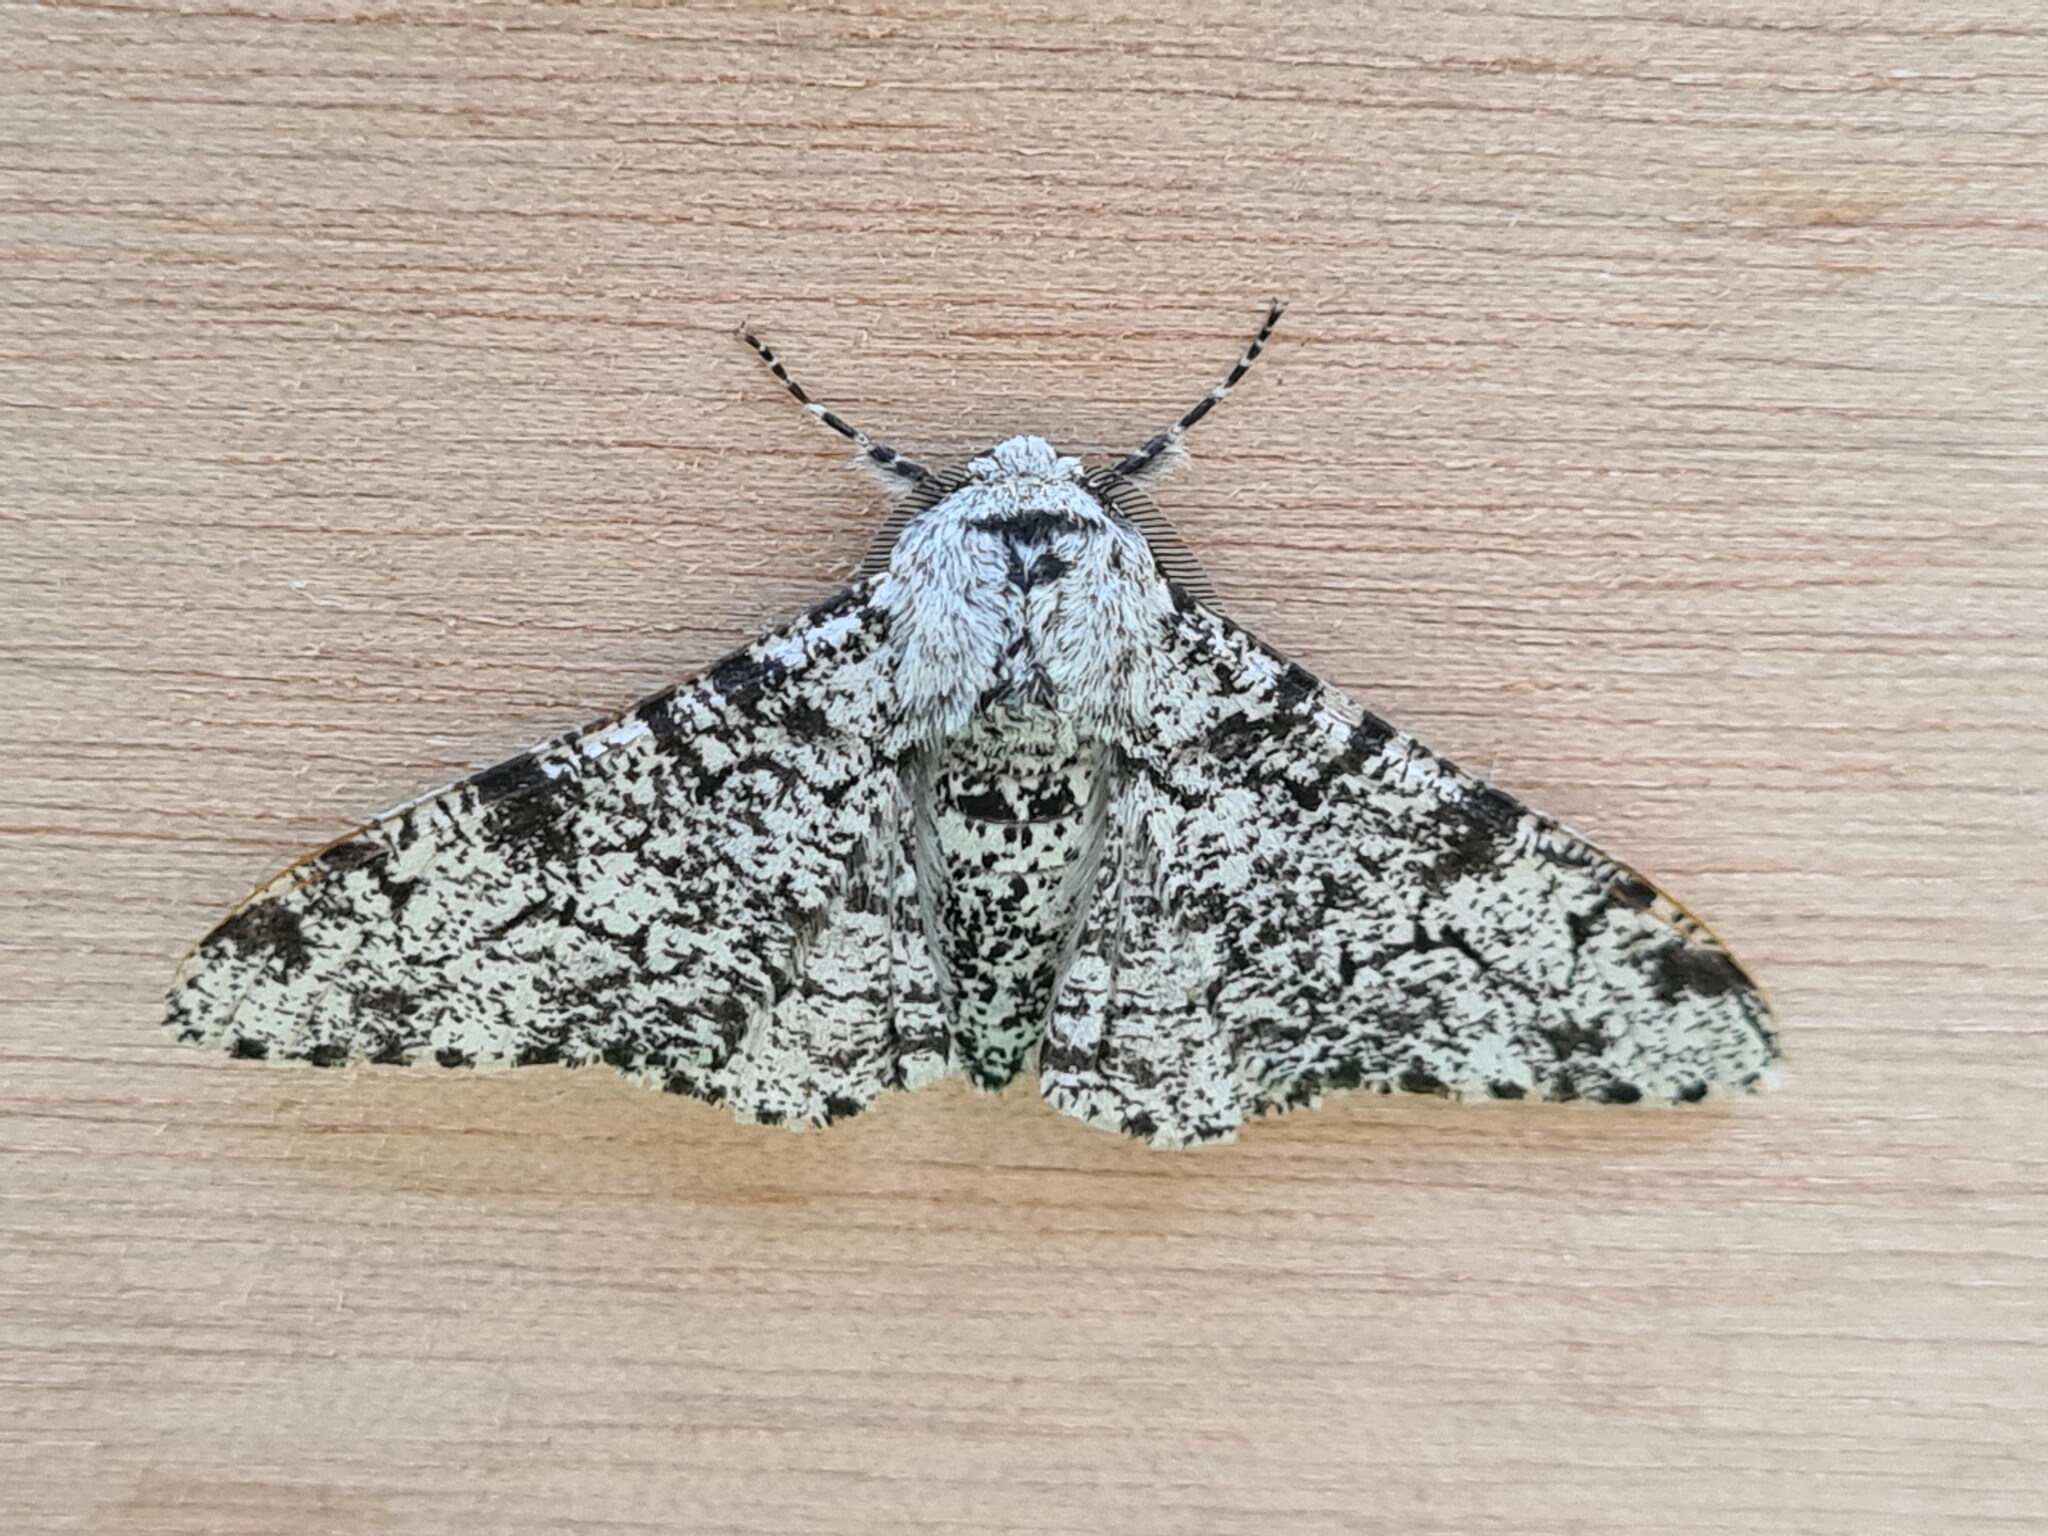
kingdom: Animalia
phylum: Arthropoda
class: Insecta
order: Lepidoptera
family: Geometridae
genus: Biston
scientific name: Biston betularia
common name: Peppered moth
